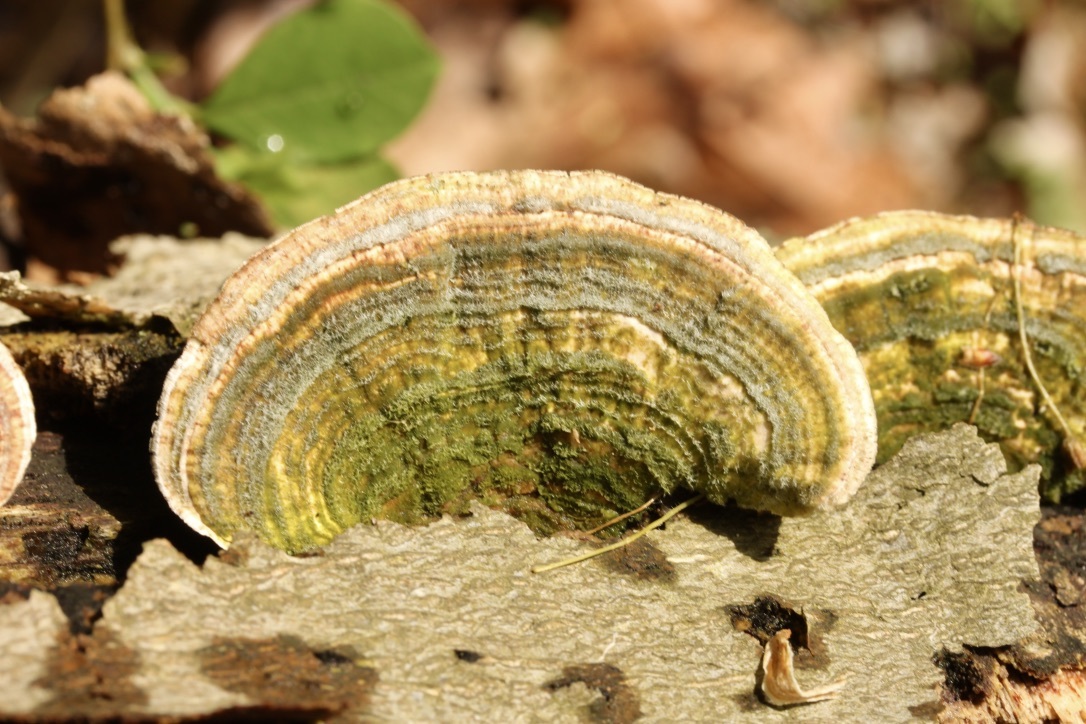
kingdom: Fungi
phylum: Basidiomycota
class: Agaricomycetes
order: Polyporales
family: Polyporaceae
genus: Lenzites
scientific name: Lenzites betulinus
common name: Birch mazegill
